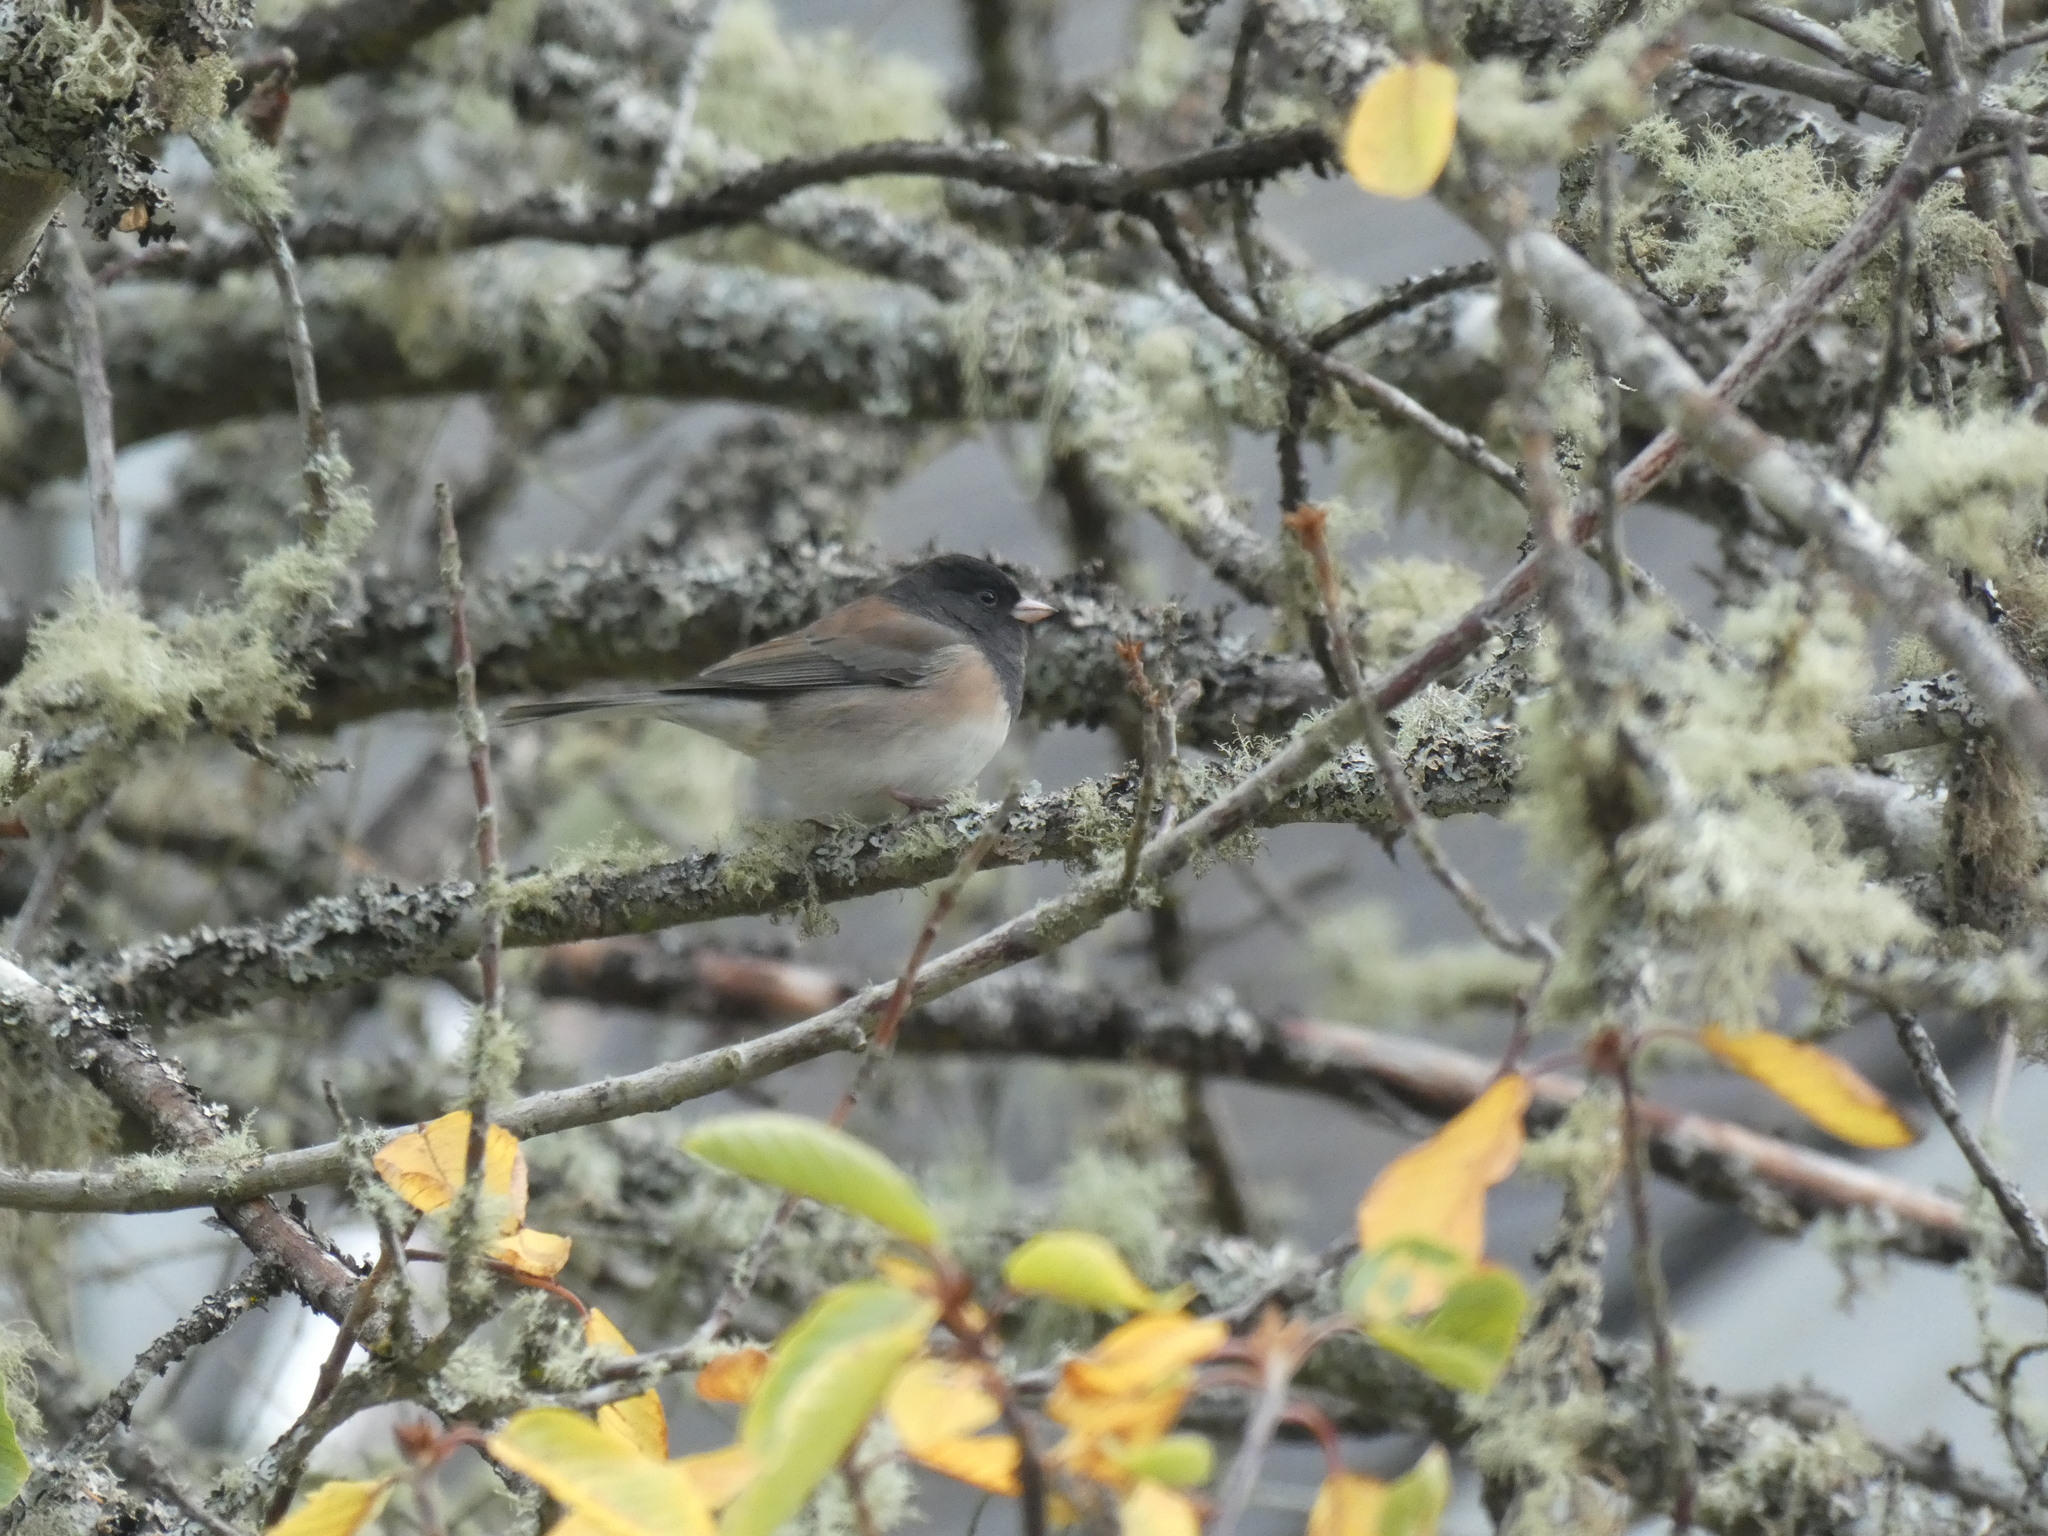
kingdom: Animalia
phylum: Chordata
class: Aves
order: Passeriformes
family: Passerellidae
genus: Junco
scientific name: Junco hyemalis
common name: Dark-eyed junco
